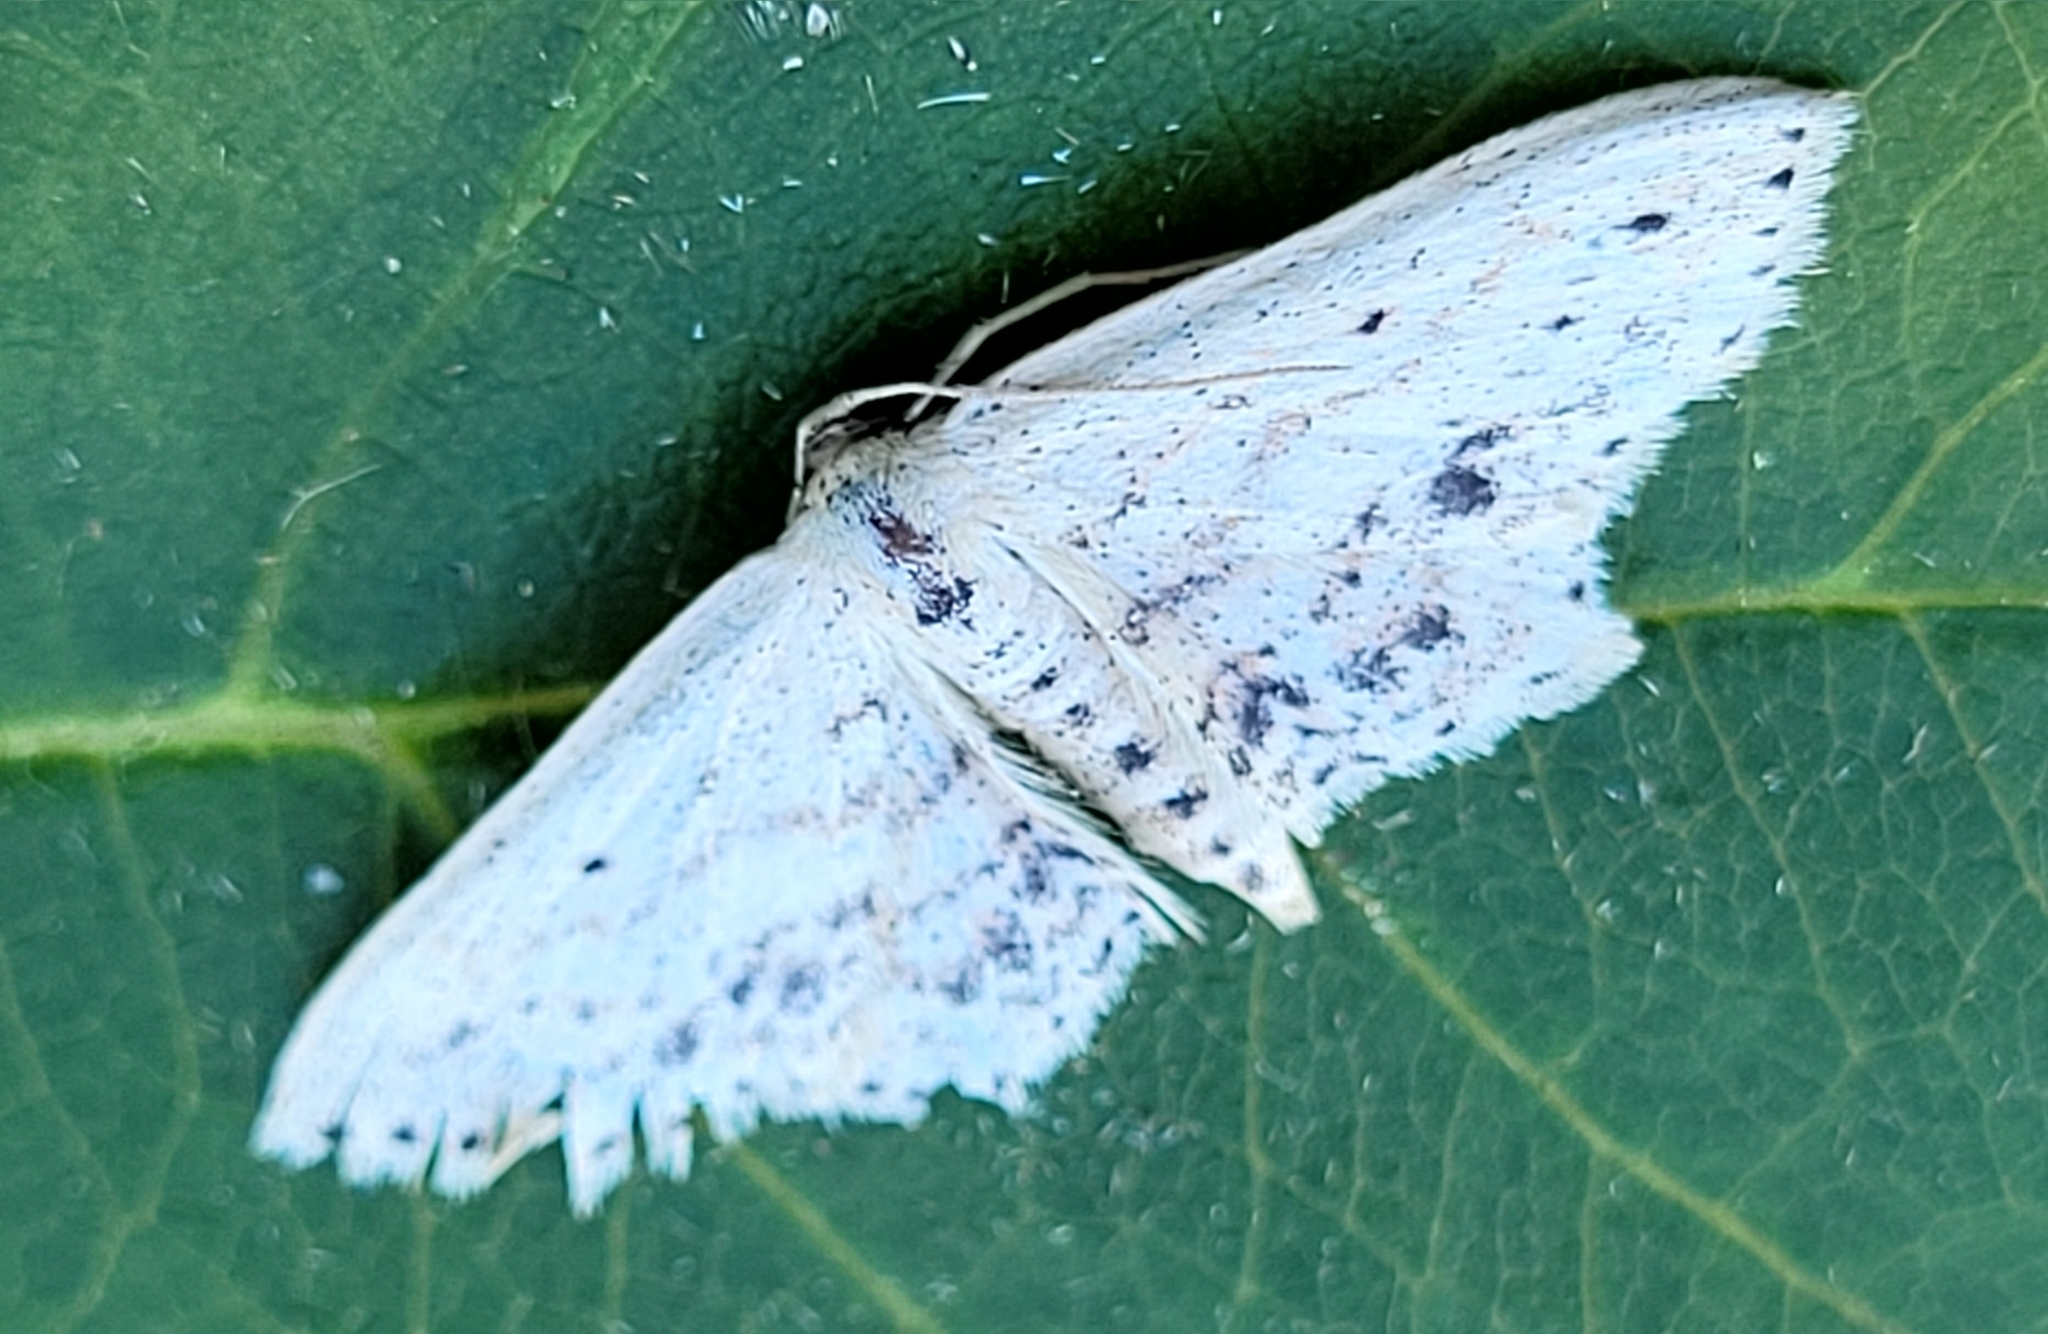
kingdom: Animalia
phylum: Arthropoda
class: Insecta
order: Lepidoptera
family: Geometridae
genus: Scopula
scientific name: Scopula cacuminaria
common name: Frosted tan wave
